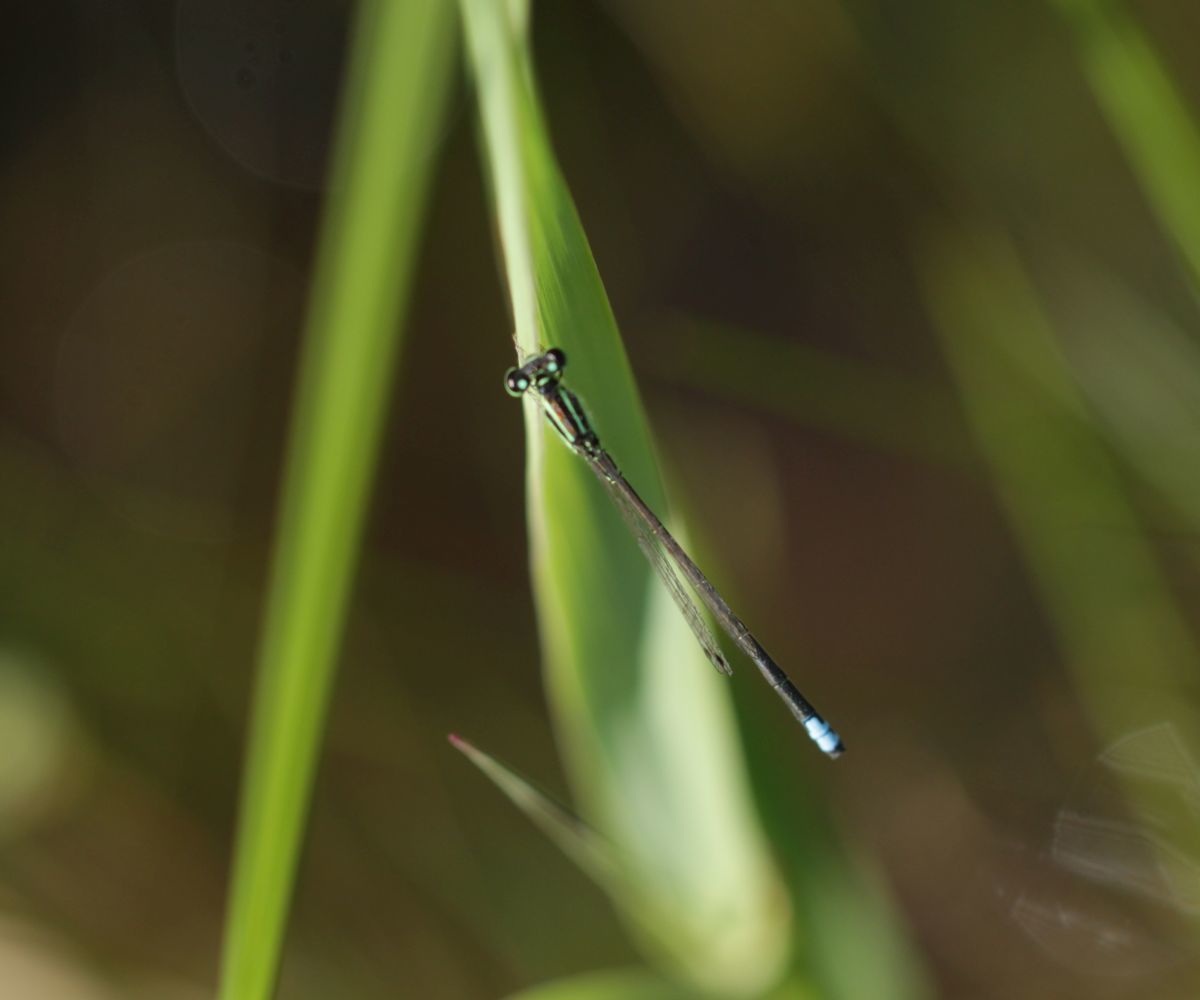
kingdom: Animalia
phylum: Arthropoda
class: Insecta
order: Odonata
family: Coenagrionidae
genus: Ischnura
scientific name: Ischnura verticalis
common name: Eastern forktail
